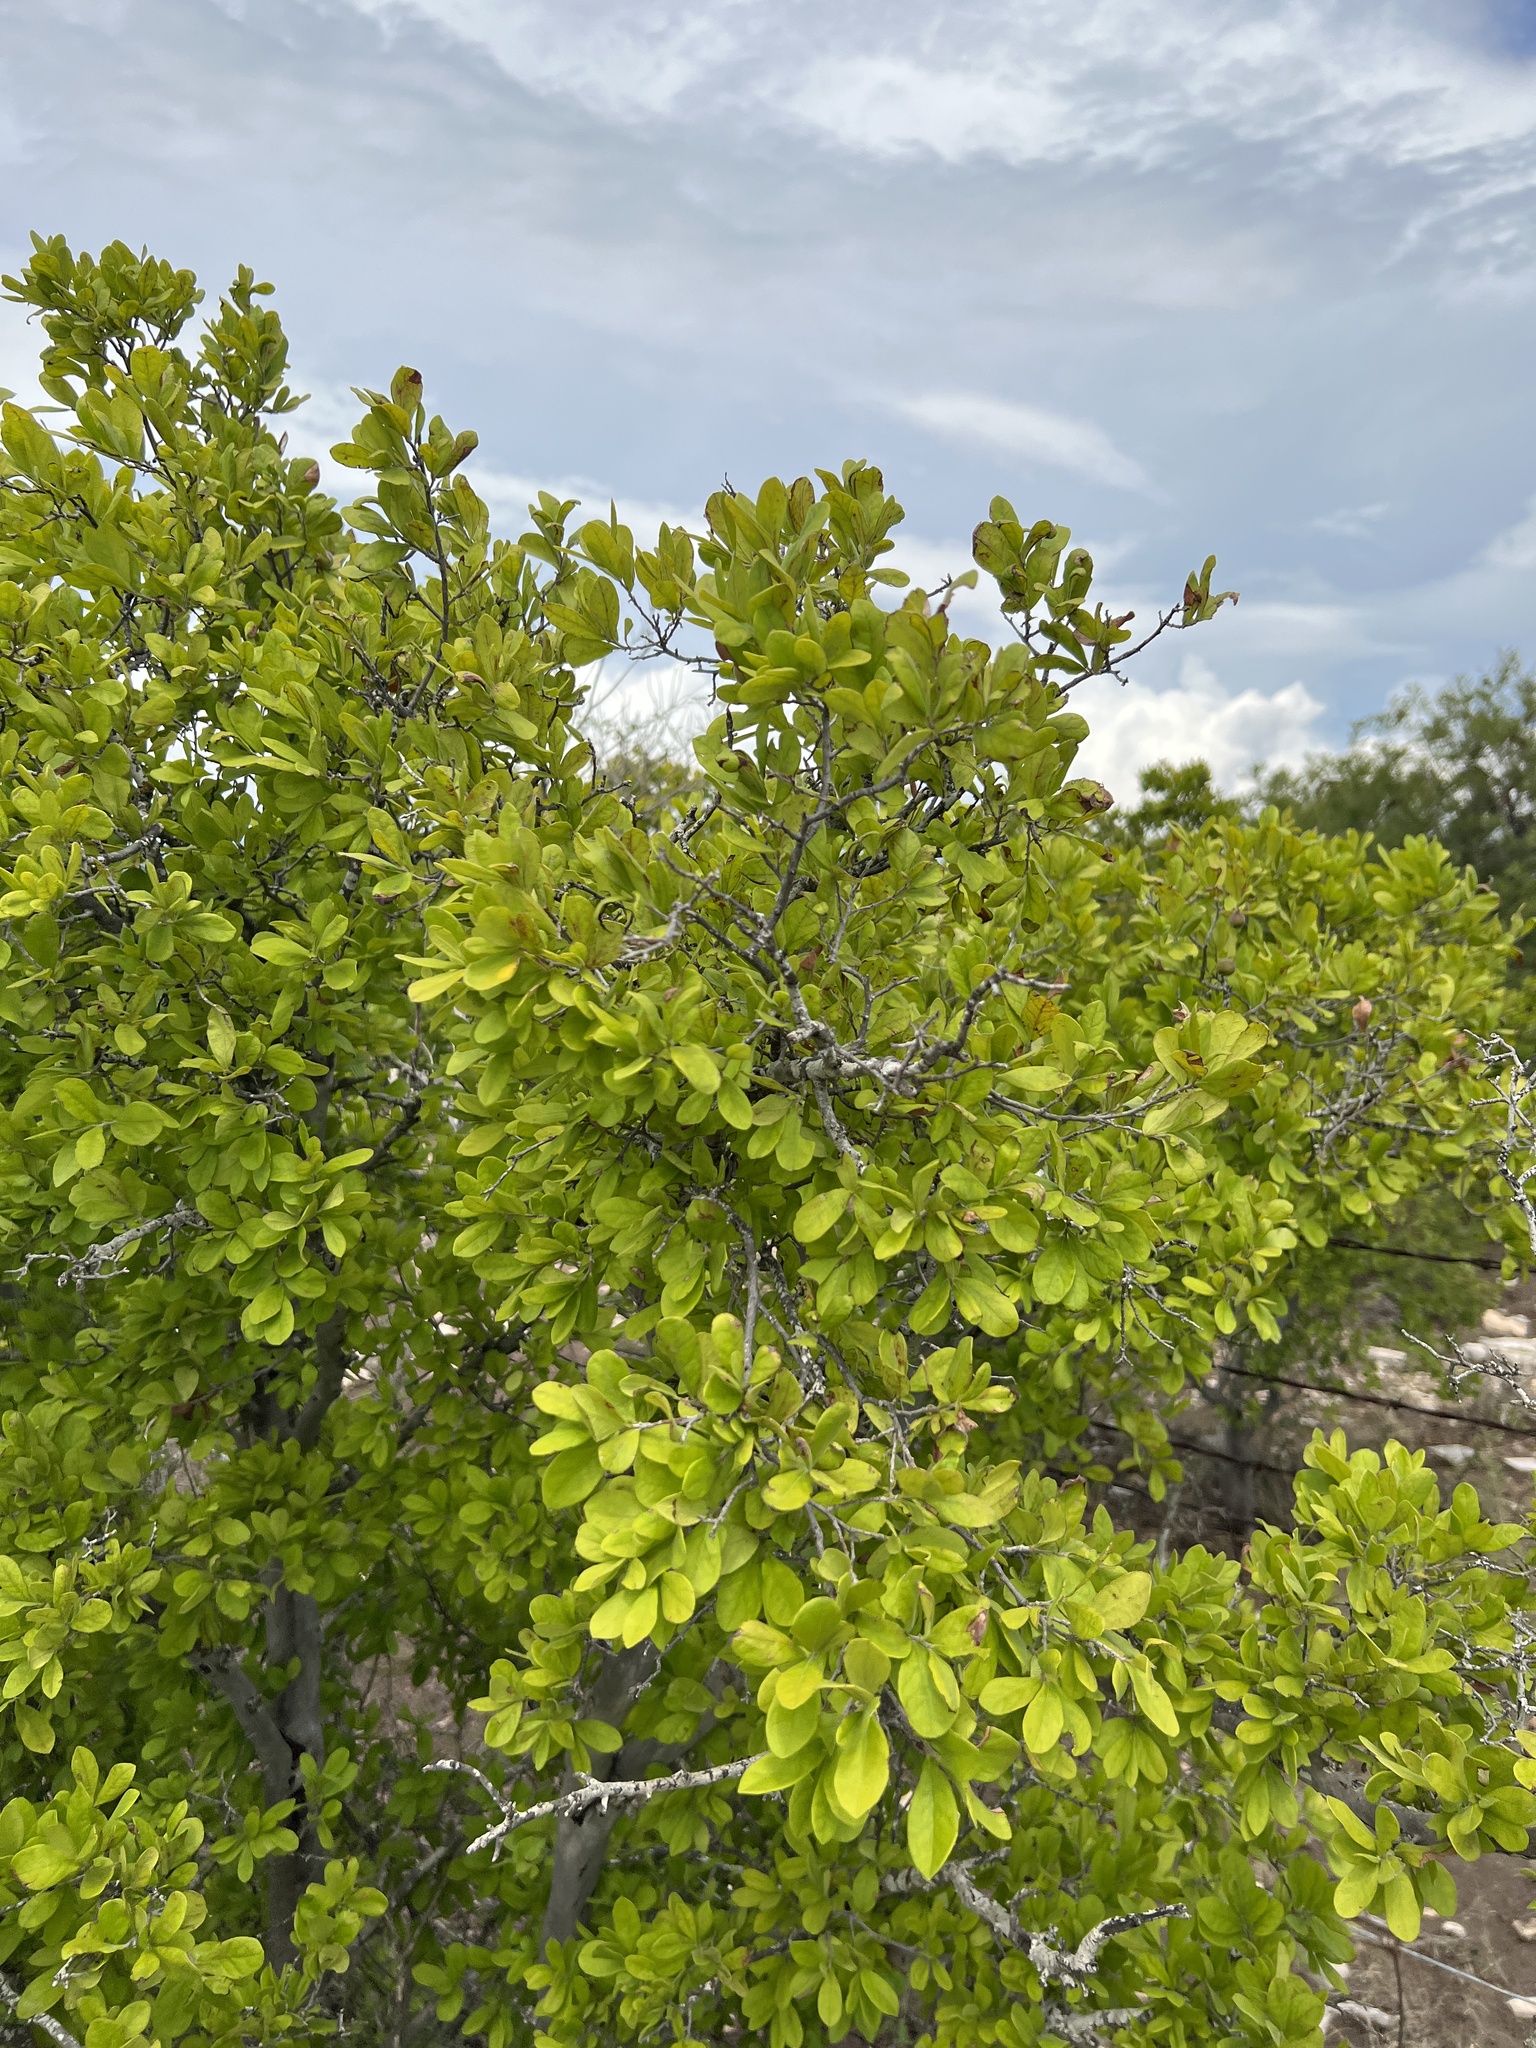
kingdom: Plantae
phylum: Tracheophyta
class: Magnoliopsida
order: Ericales
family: Ebenaceae
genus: Diospyros
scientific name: Diospyros texana
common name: Texas persimmon
